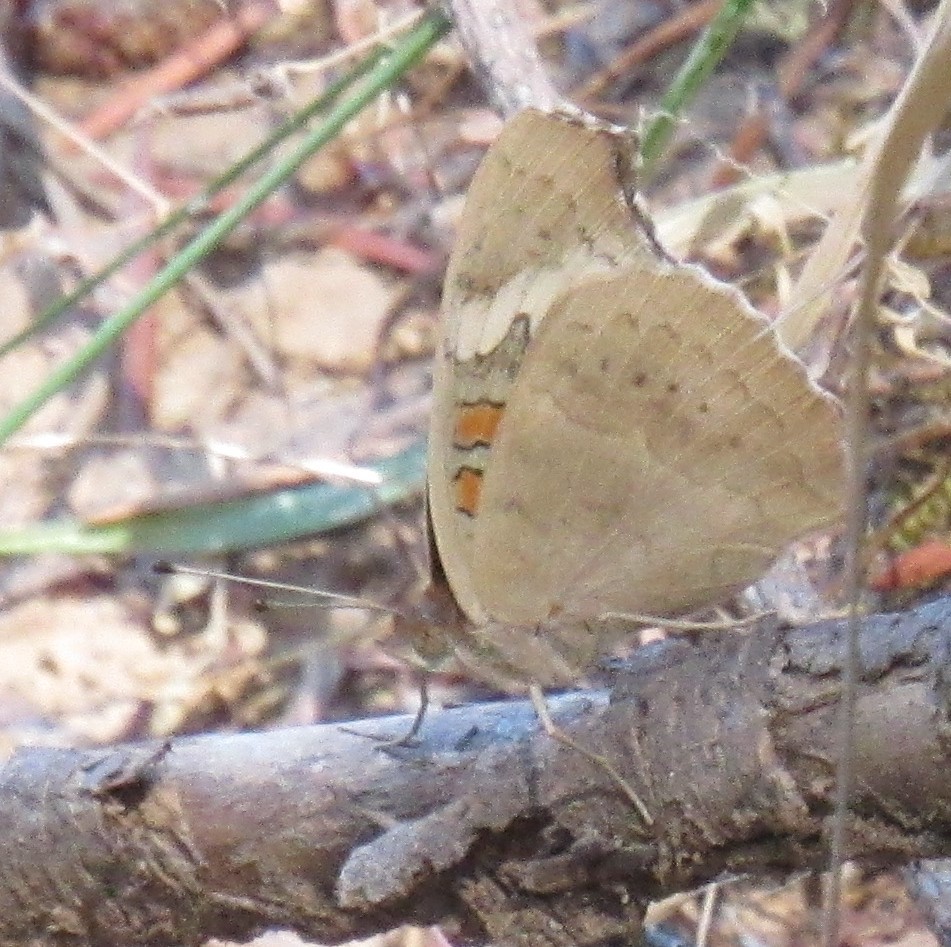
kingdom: Animalia
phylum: Arthropoda
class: Insecta
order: Lepidoptera
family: Nymphalidae
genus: Junonia
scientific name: Junonia grisea
